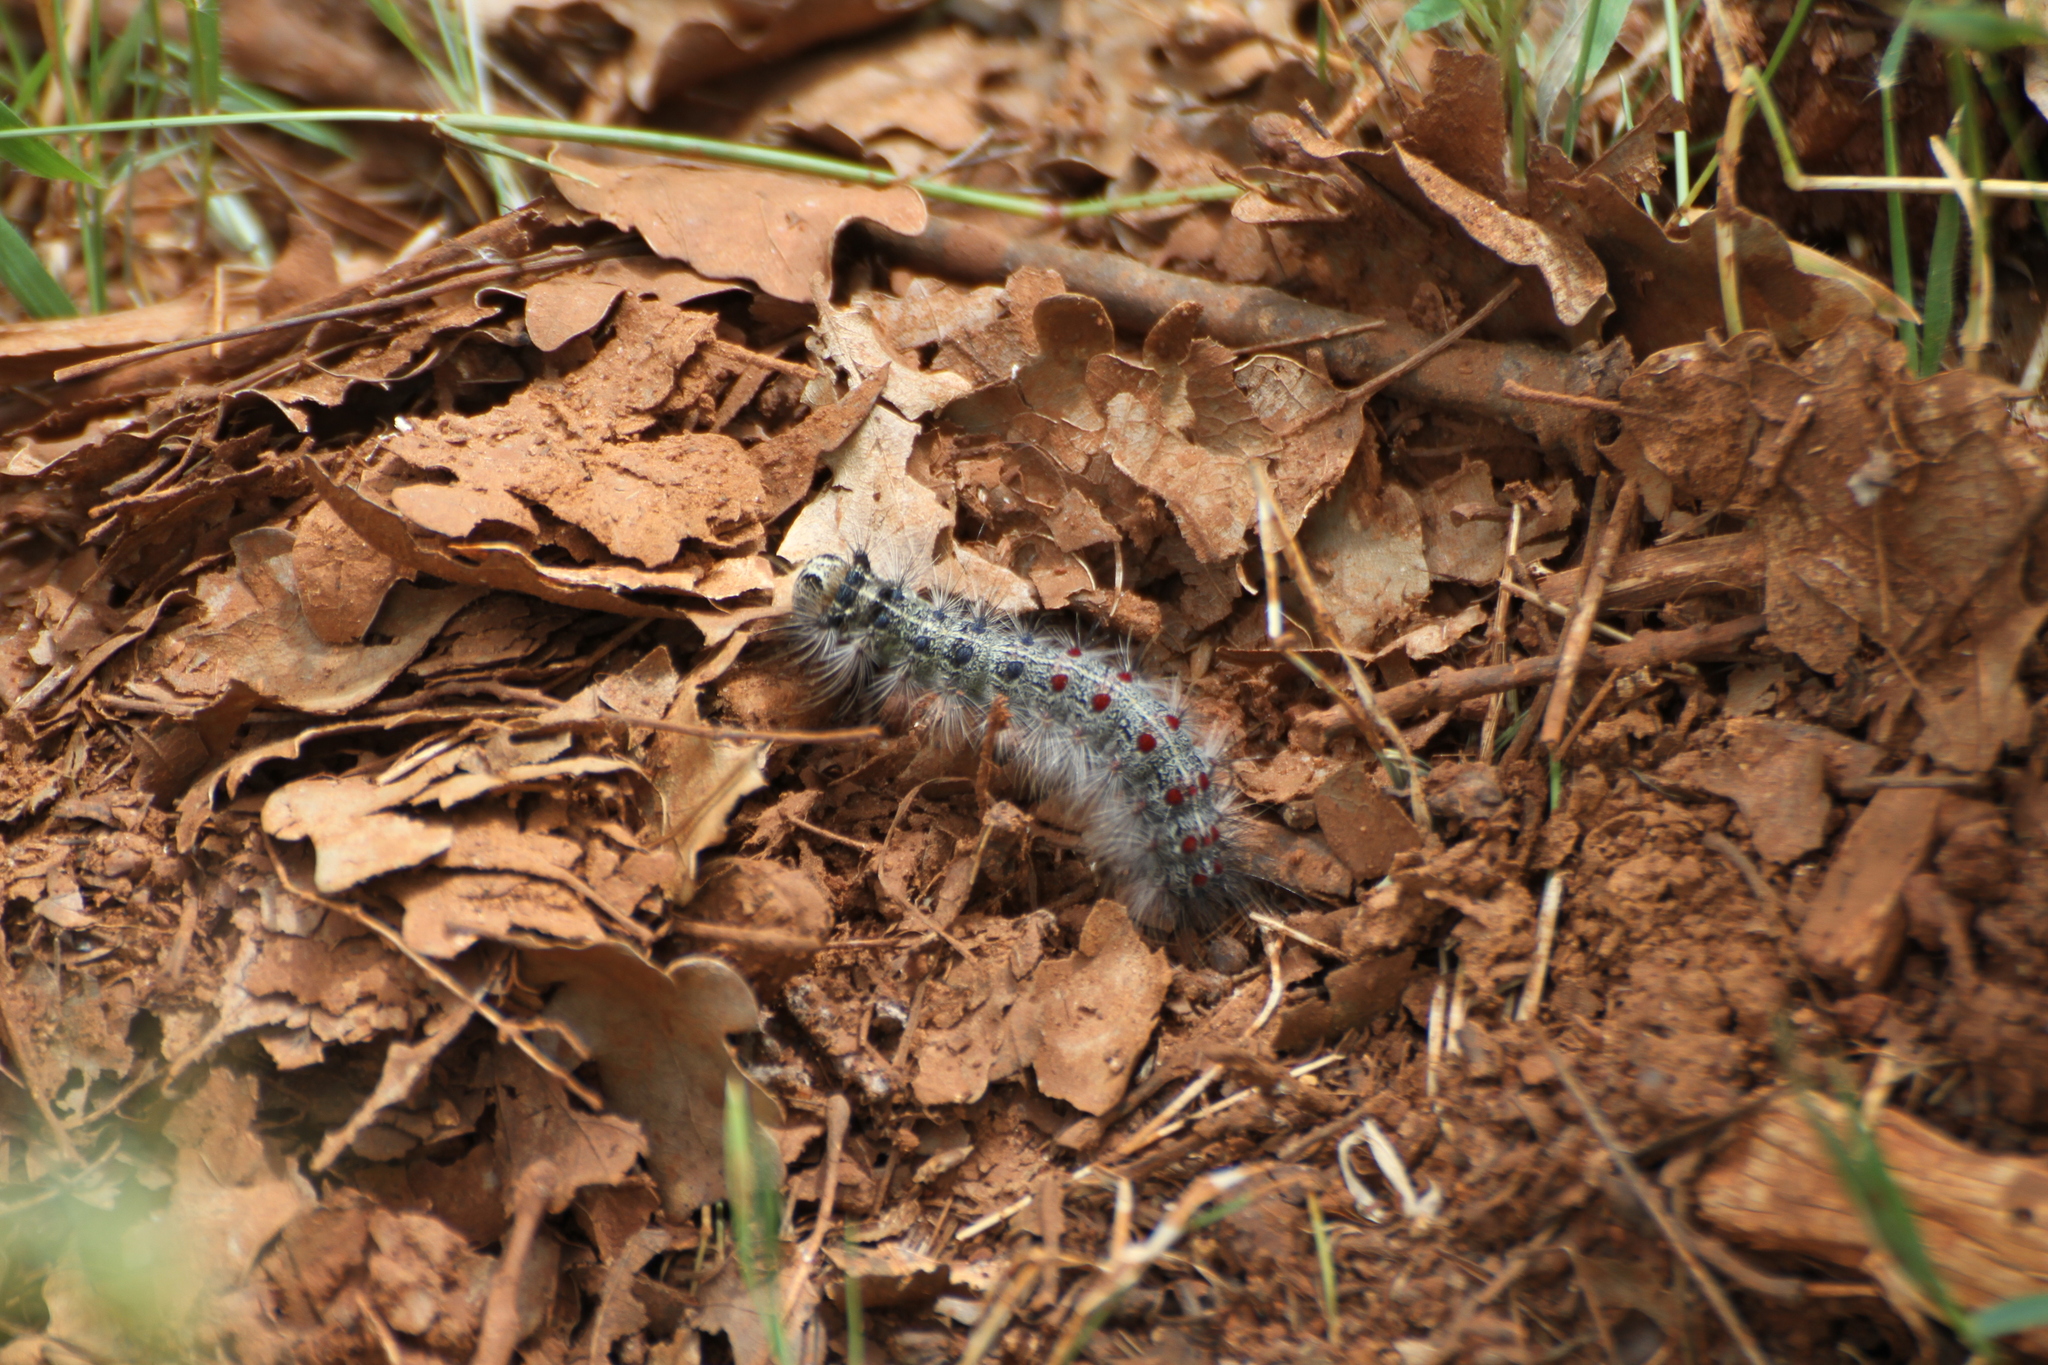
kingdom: Animalia
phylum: Arthropoda
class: Insecta
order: Lepidoptera
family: Erebidae
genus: Lymantria
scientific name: Lymantria dispar
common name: Gypsy moth
